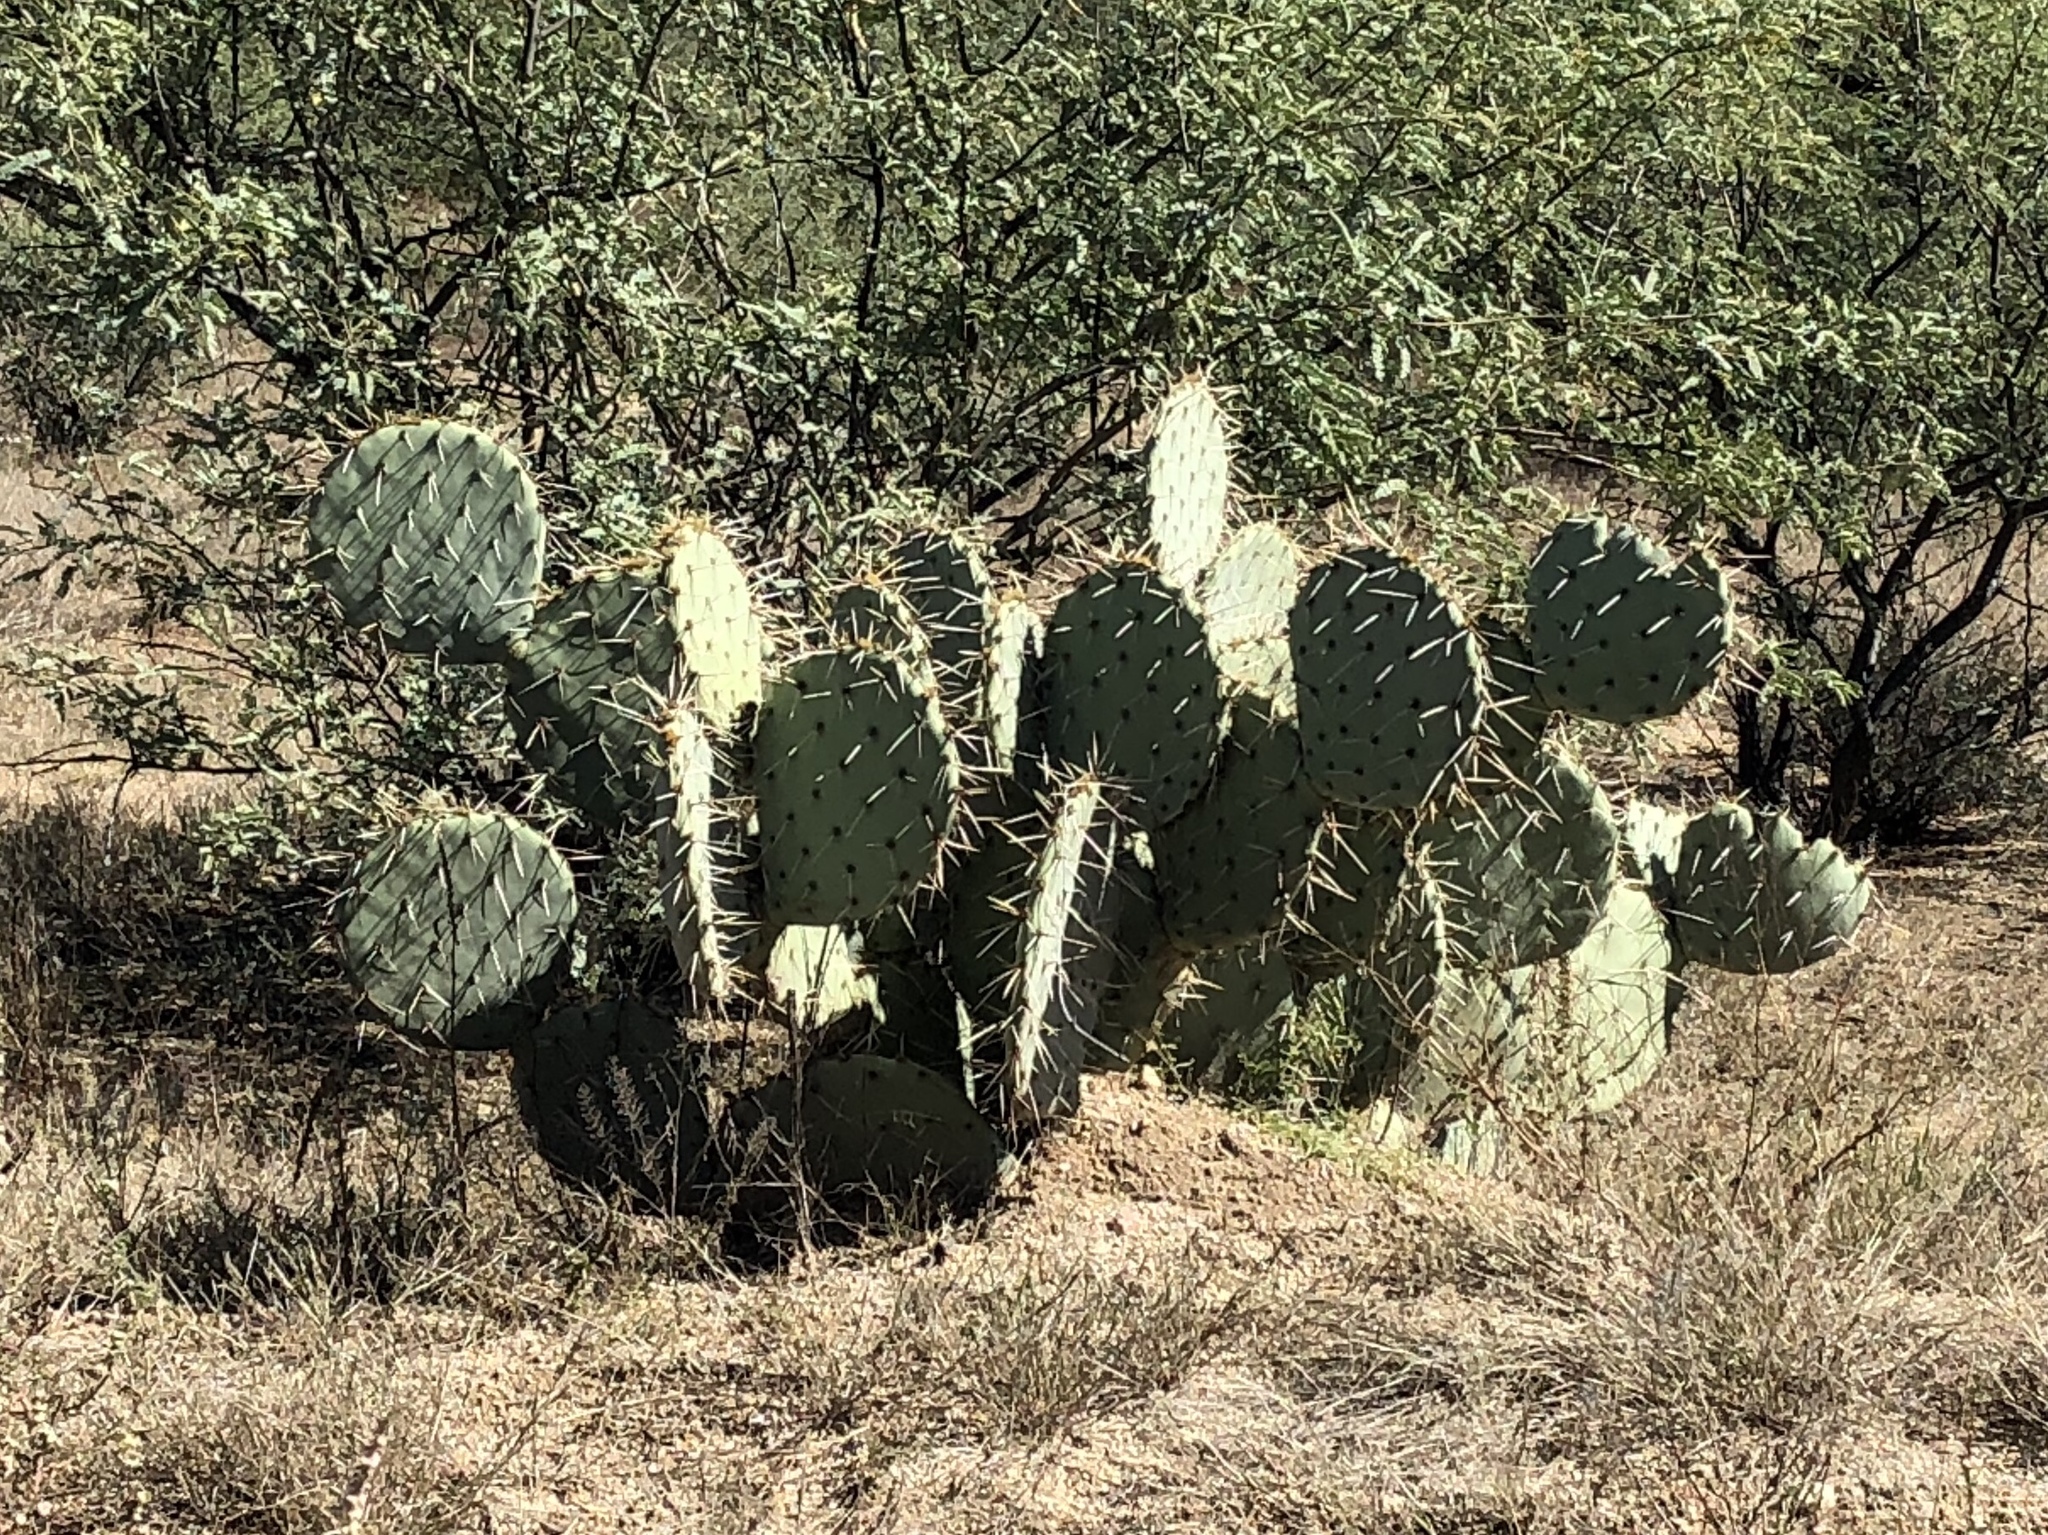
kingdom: Plantae
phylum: Tracheophyta
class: Magnoliopsida
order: Caryophyllales
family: Cactaceae
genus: Opuntia
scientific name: Opuntia engelmannii
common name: Cactus-apple
